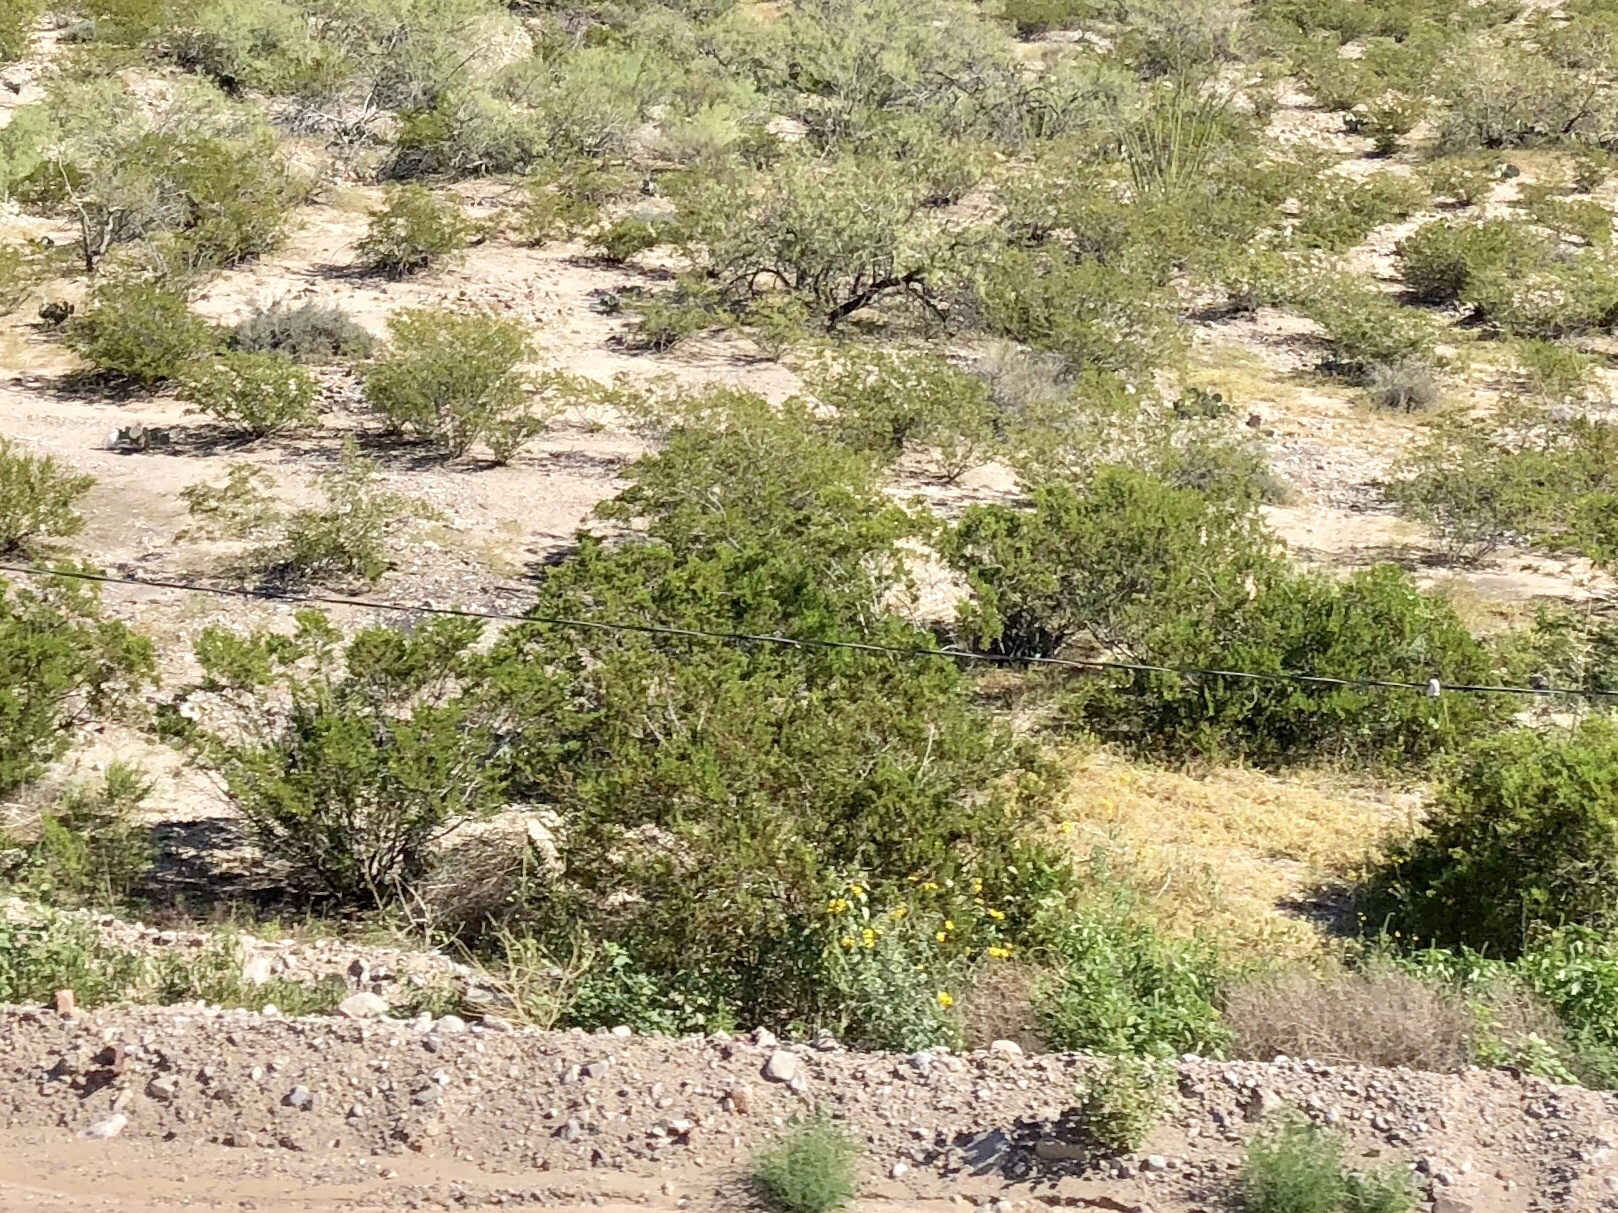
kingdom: Plantae
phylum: Tracheophyta
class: Magnoliopsida
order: Zygophyllales
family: Zygophyllaceae
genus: Larrea
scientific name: Larrea tridentata
